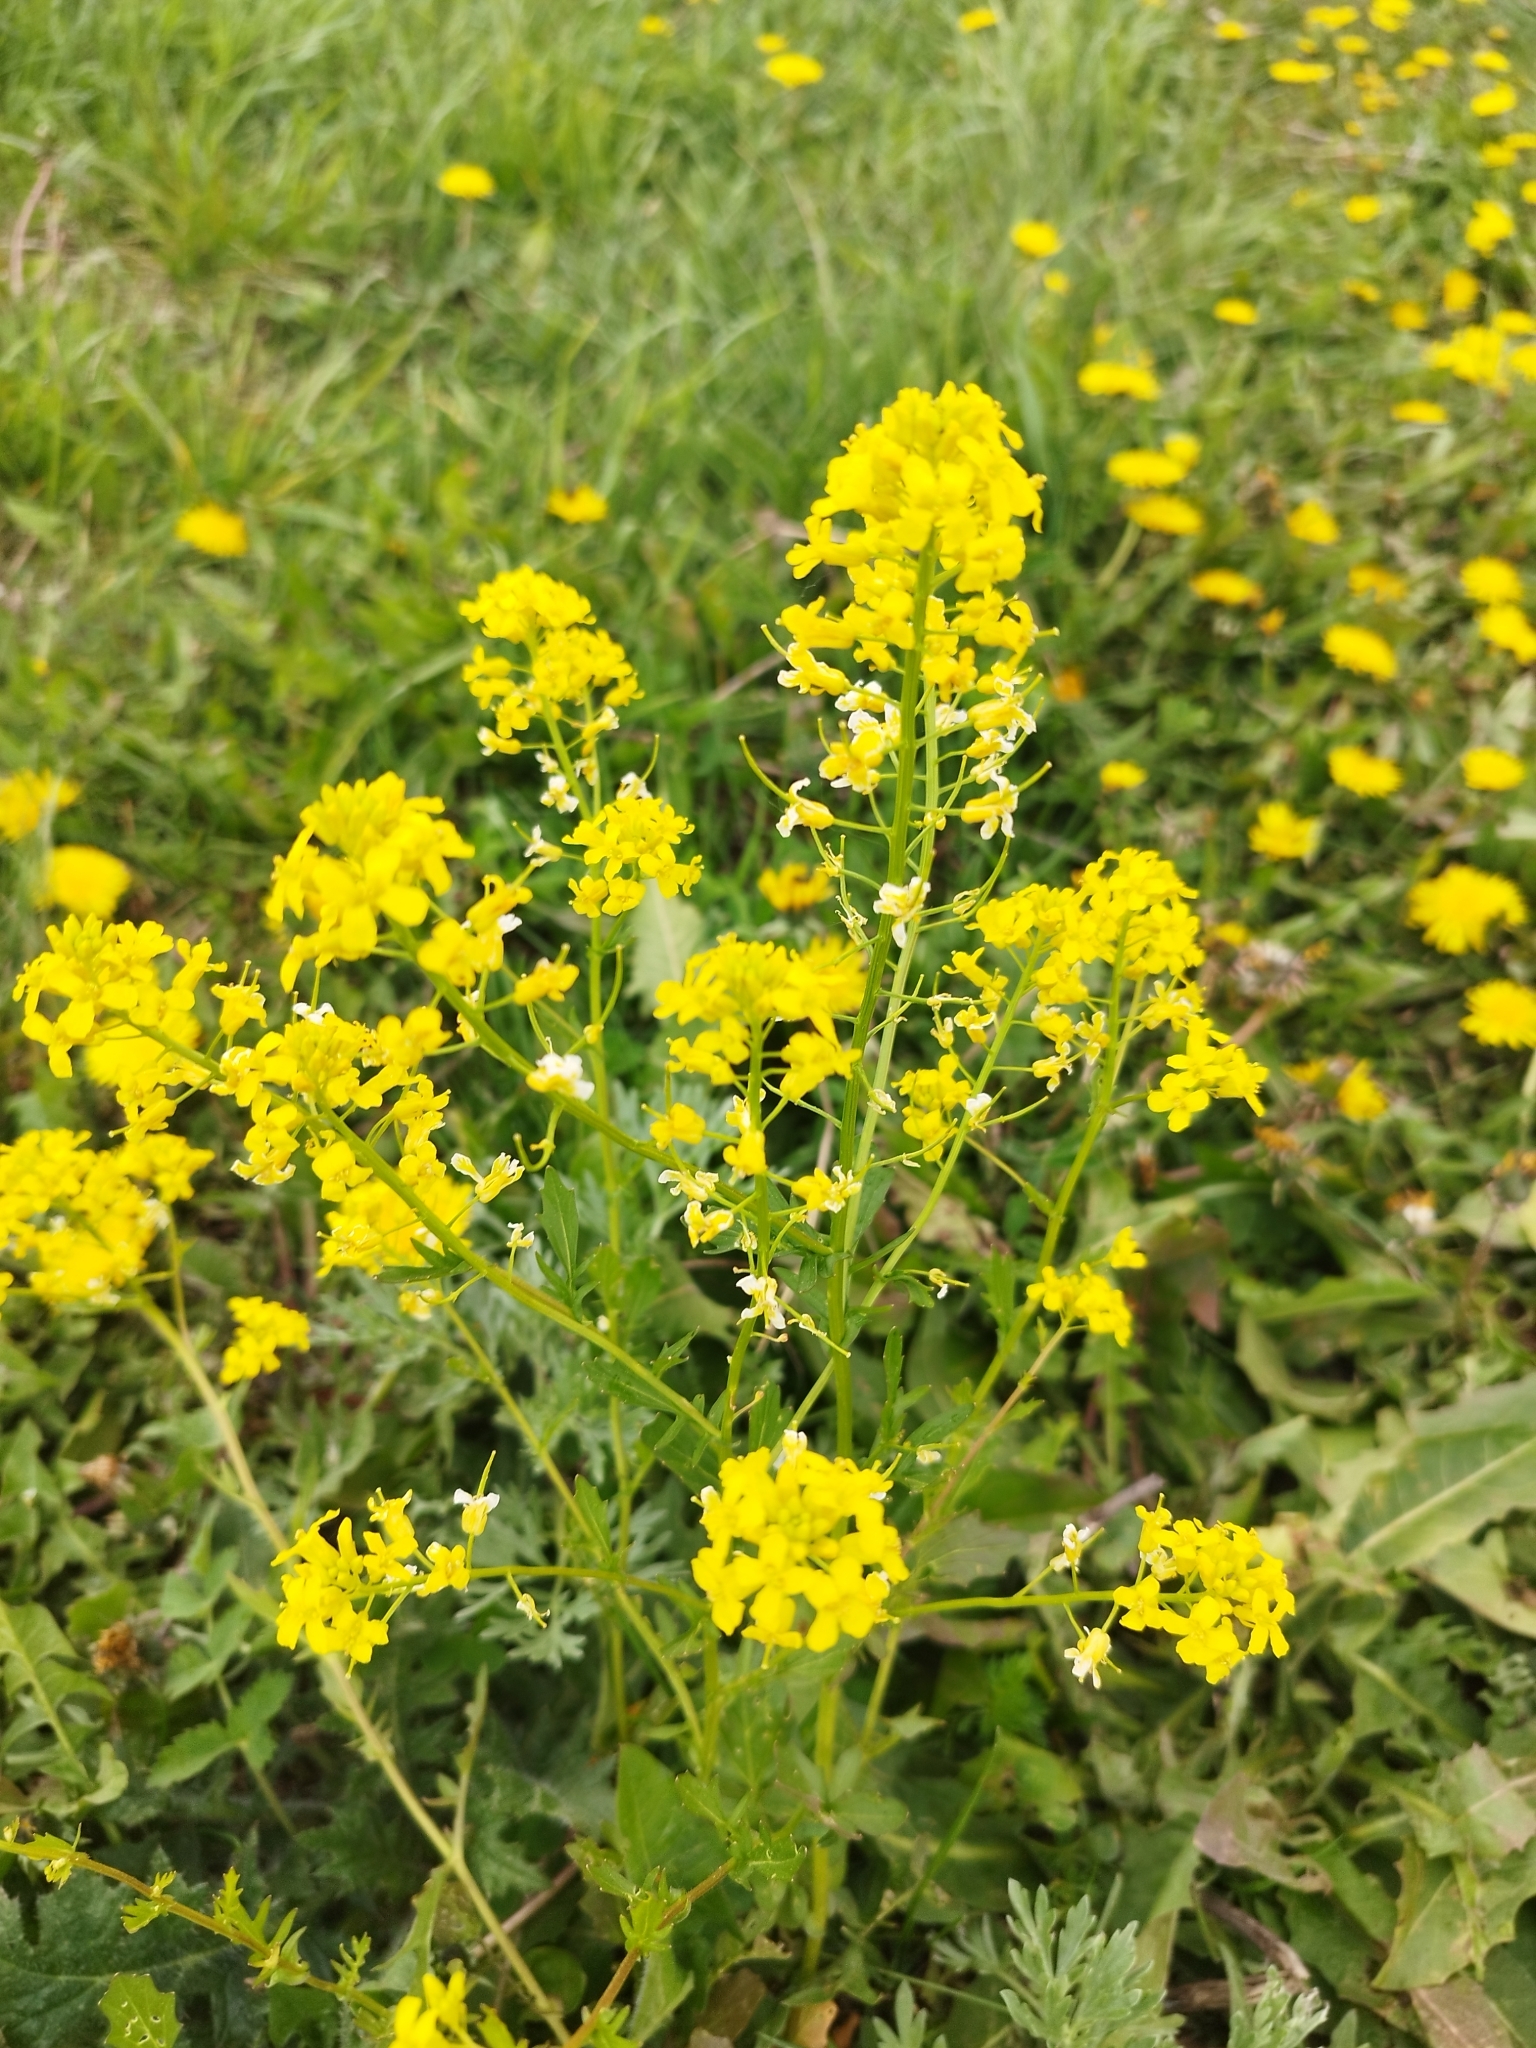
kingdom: Plantae
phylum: Tracheophyta
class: Magnoliopsida
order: Brassicales
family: Brassicaceae
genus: Barbarea
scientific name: Barbarea vulgaris
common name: Cressy-greens
